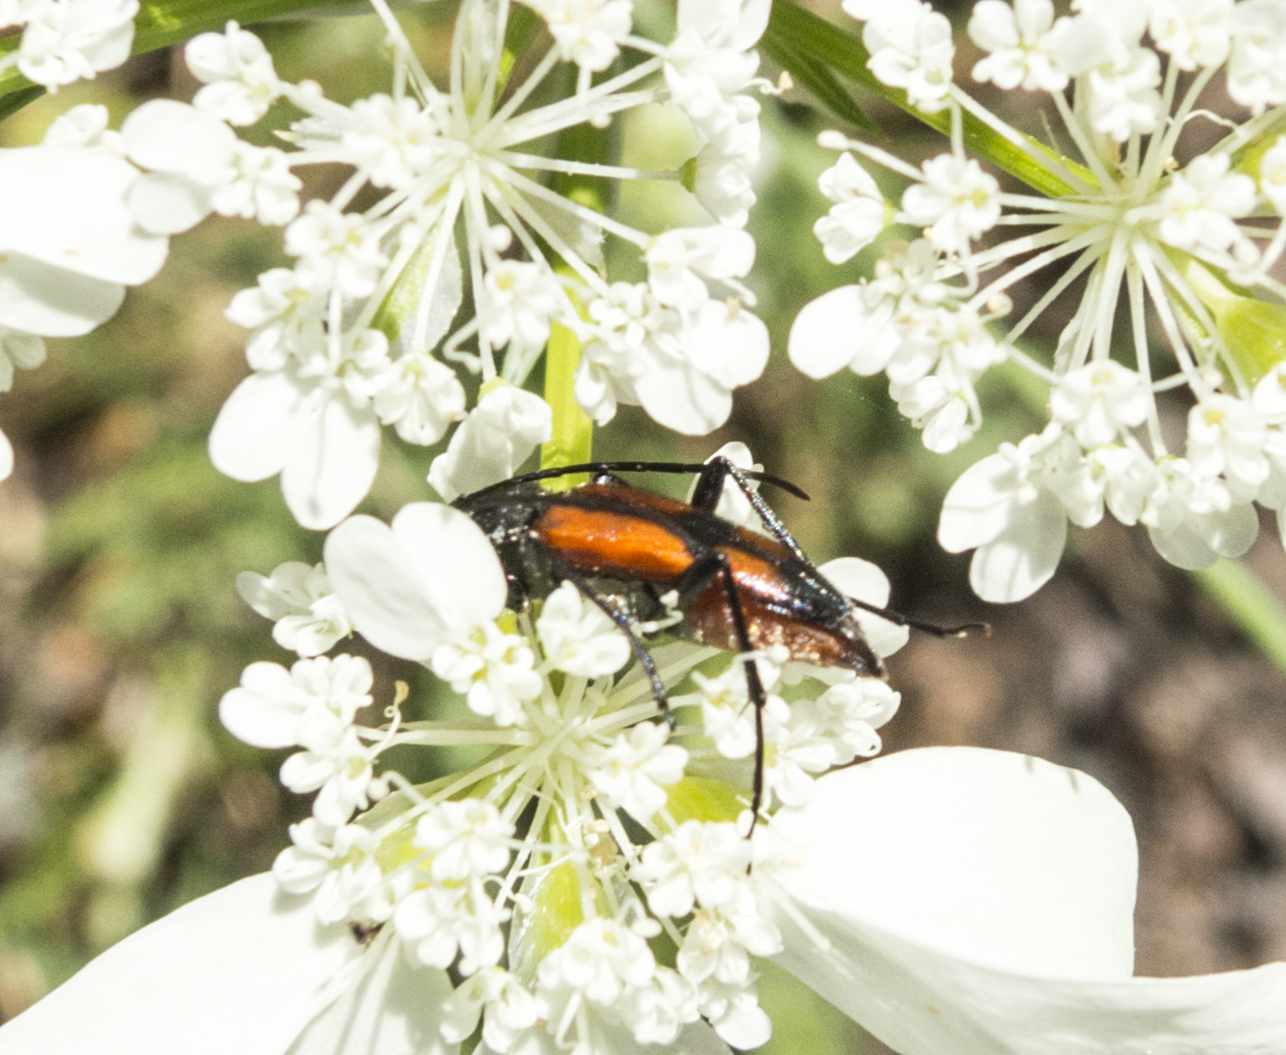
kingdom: Animalia
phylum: Arthropoda
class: Insecta
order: Coleoptera
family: Cerambycidae
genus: Stenurella
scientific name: Stenurella bifasciata
